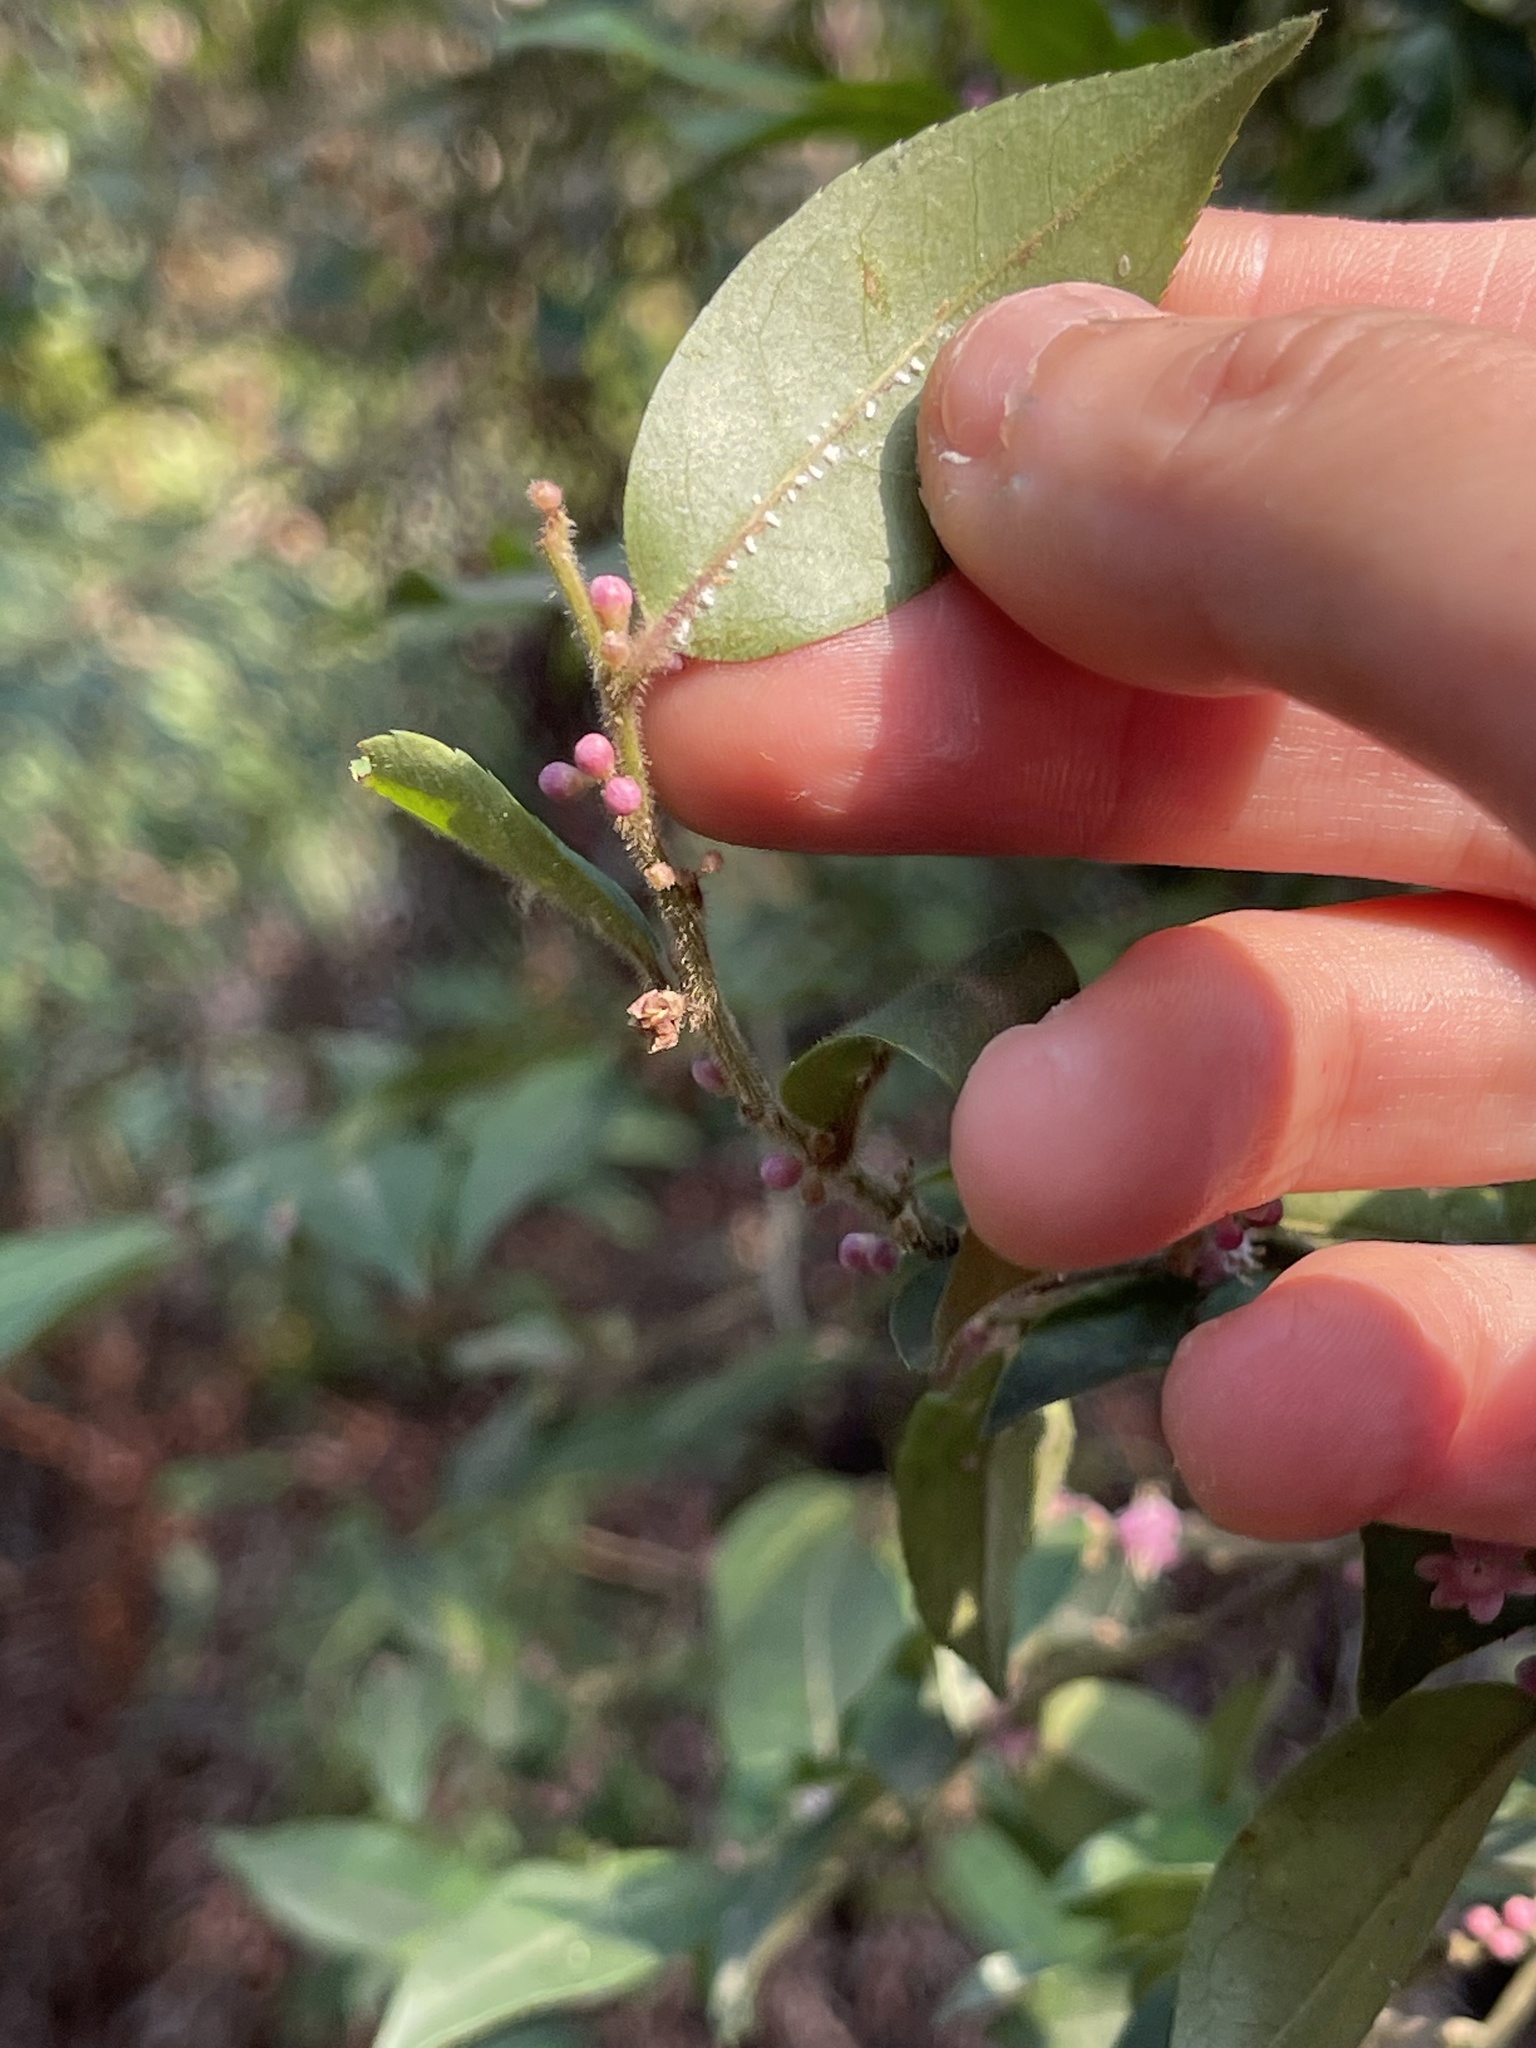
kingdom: Plantae
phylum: Tracheophyta
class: Magnoliopsida
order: Aquifoliales
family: Aquifoliaceae
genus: Ilex
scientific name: Ilex pubescens
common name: Pubescent holly
